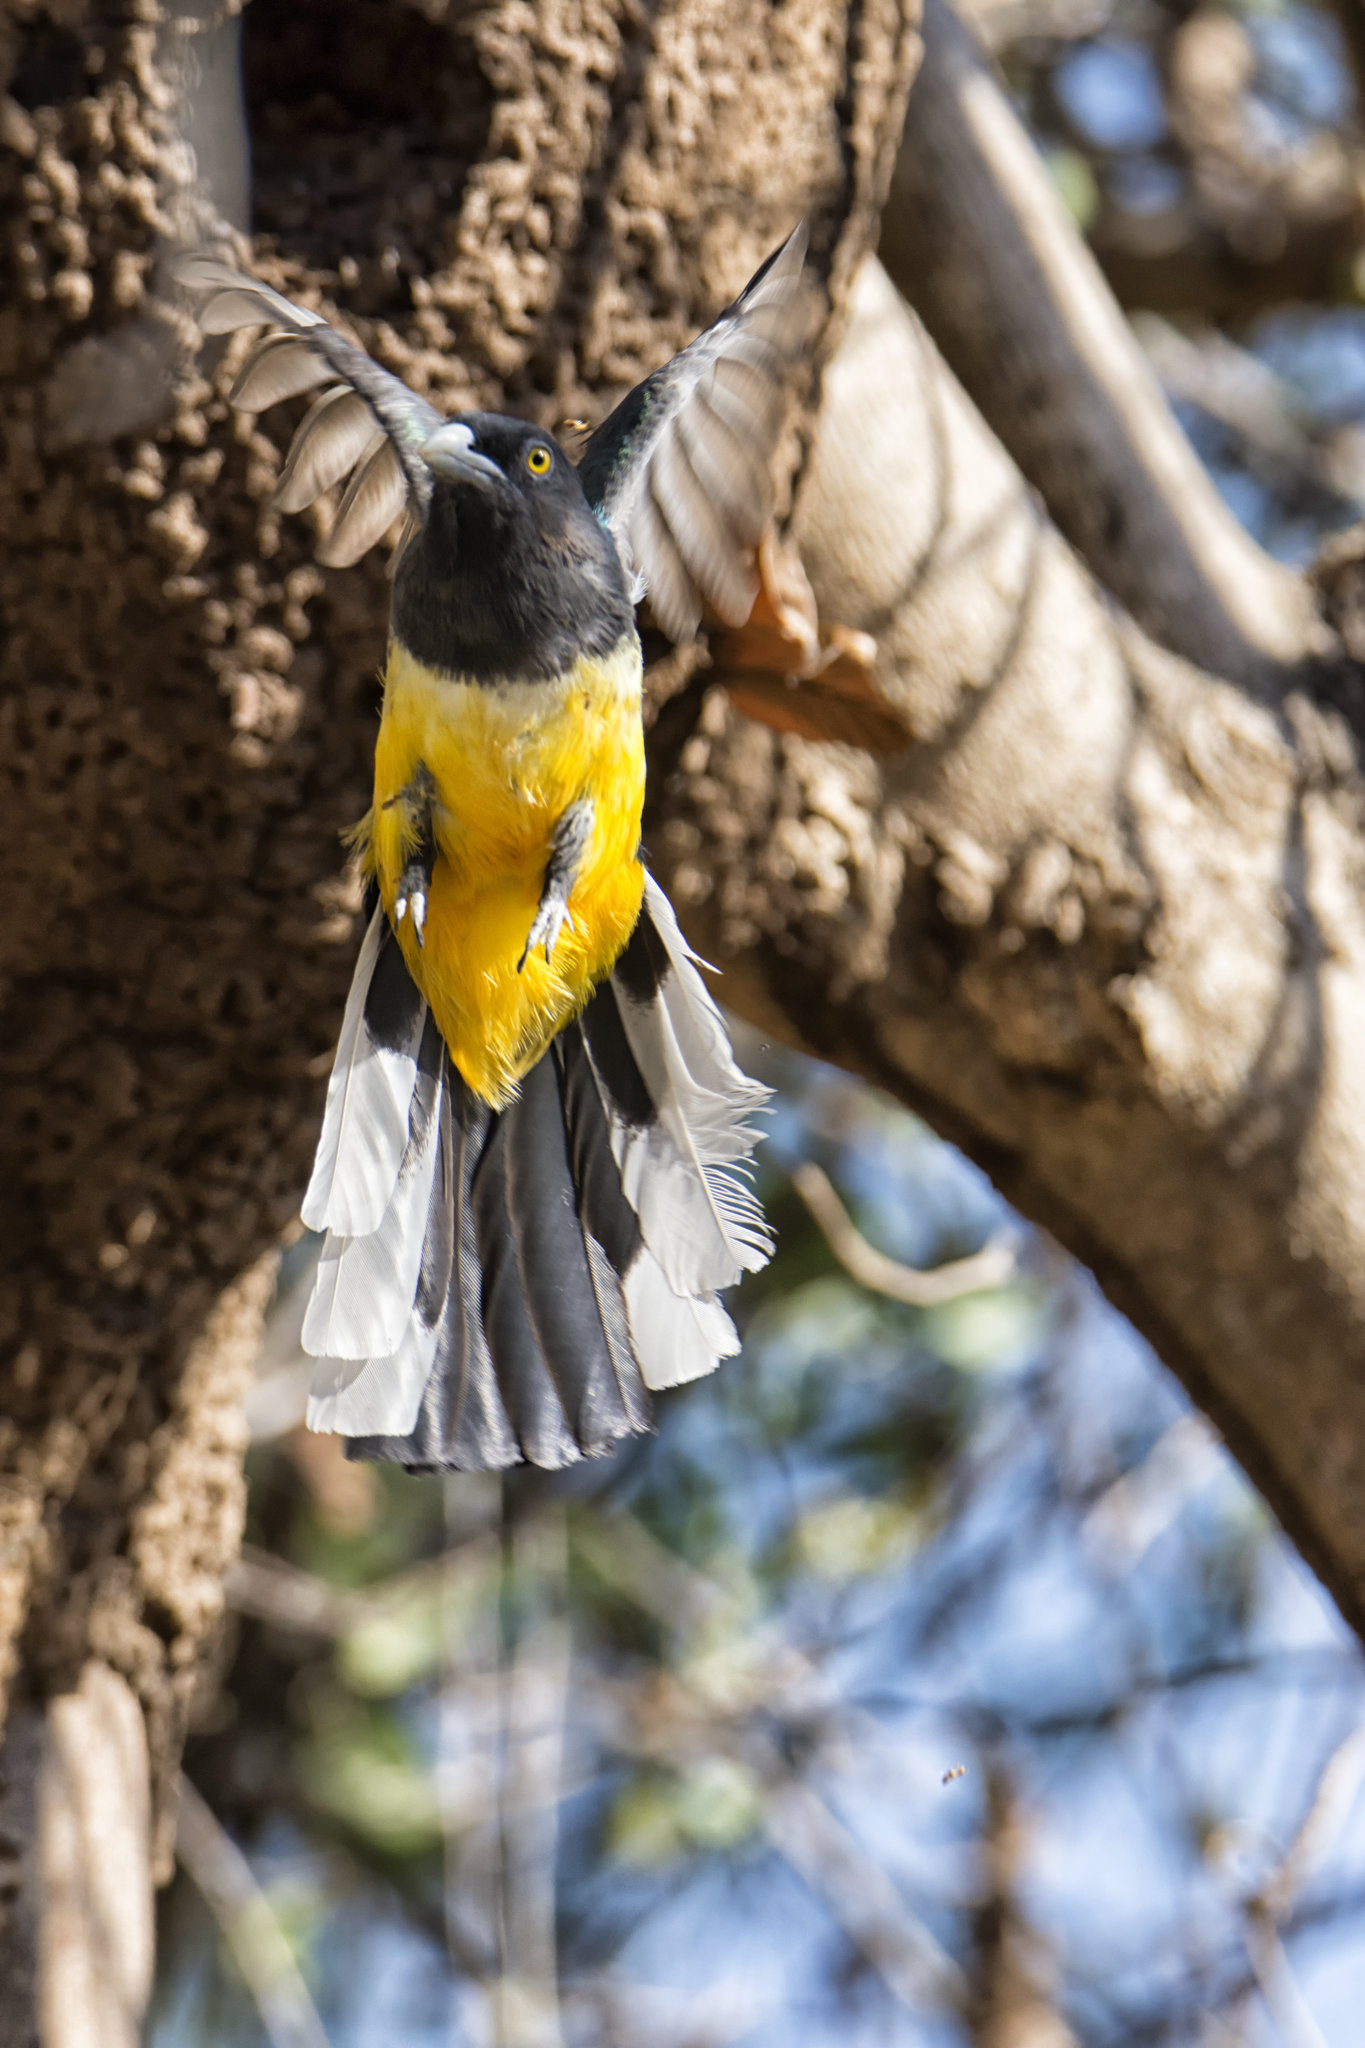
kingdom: Animalia
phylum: Chordata
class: Aves
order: Trogoniformes
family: Trogonidae
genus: Trogon
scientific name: Trogon citreolus
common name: Citreoline trogon
